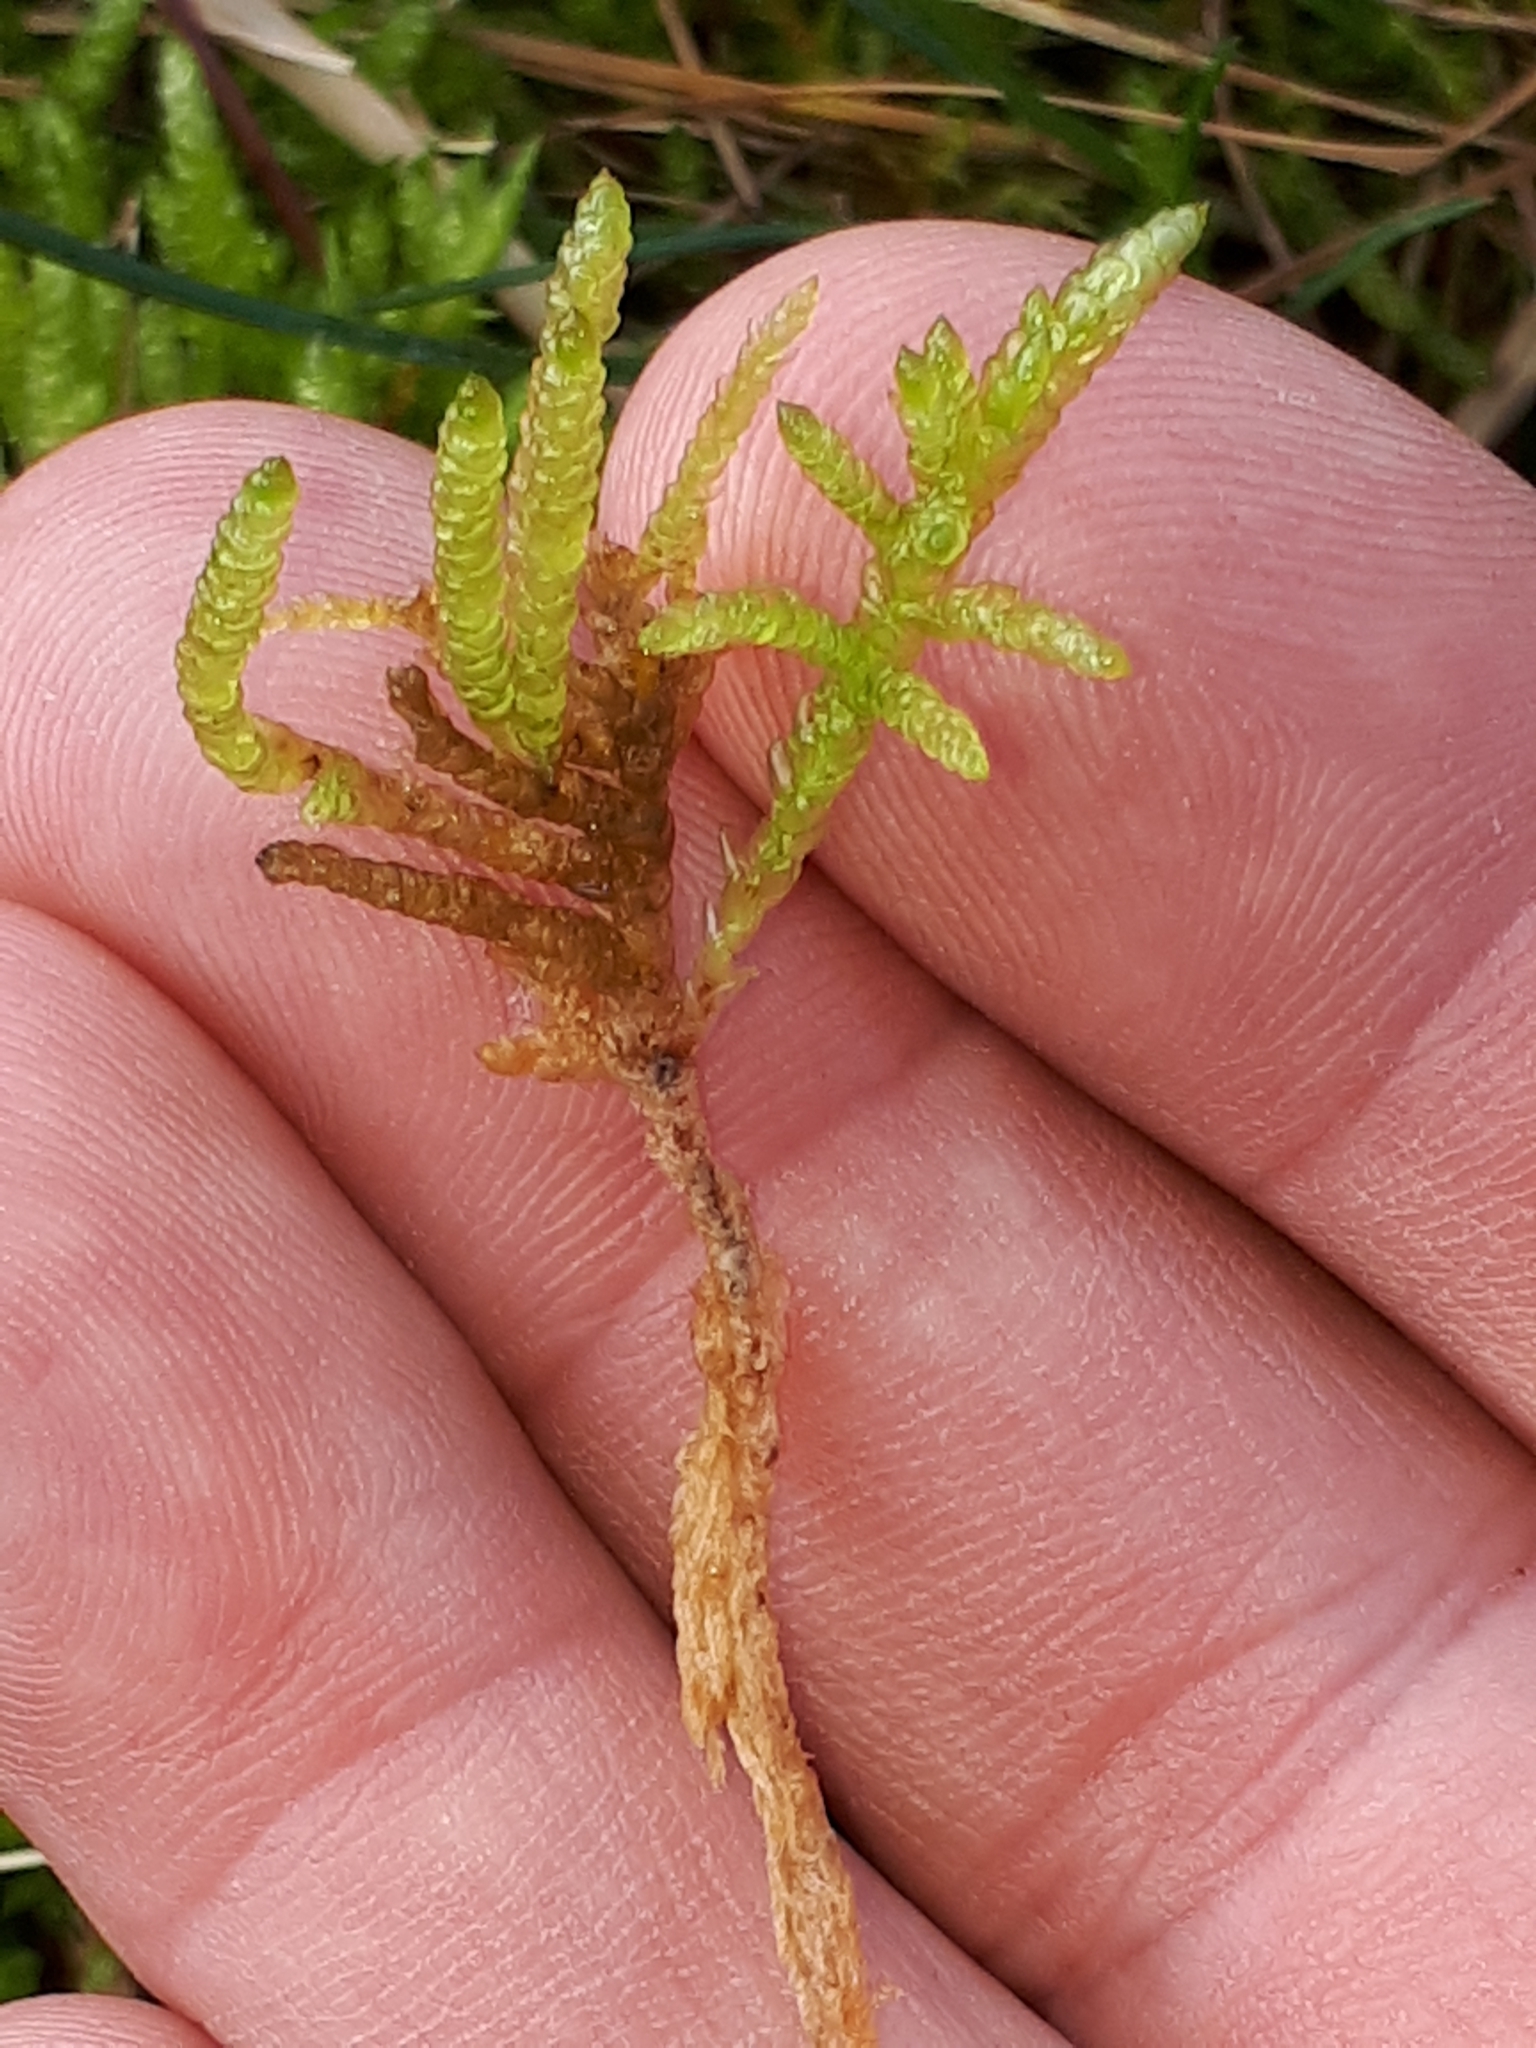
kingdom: Plantae
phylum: Bryophyta
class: Bryopsida
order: Hypnales
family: Brachytheciaceae
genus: Pseudoscleropodium
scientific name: Pseudoscleropodium purum
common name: Neat feather-moss
